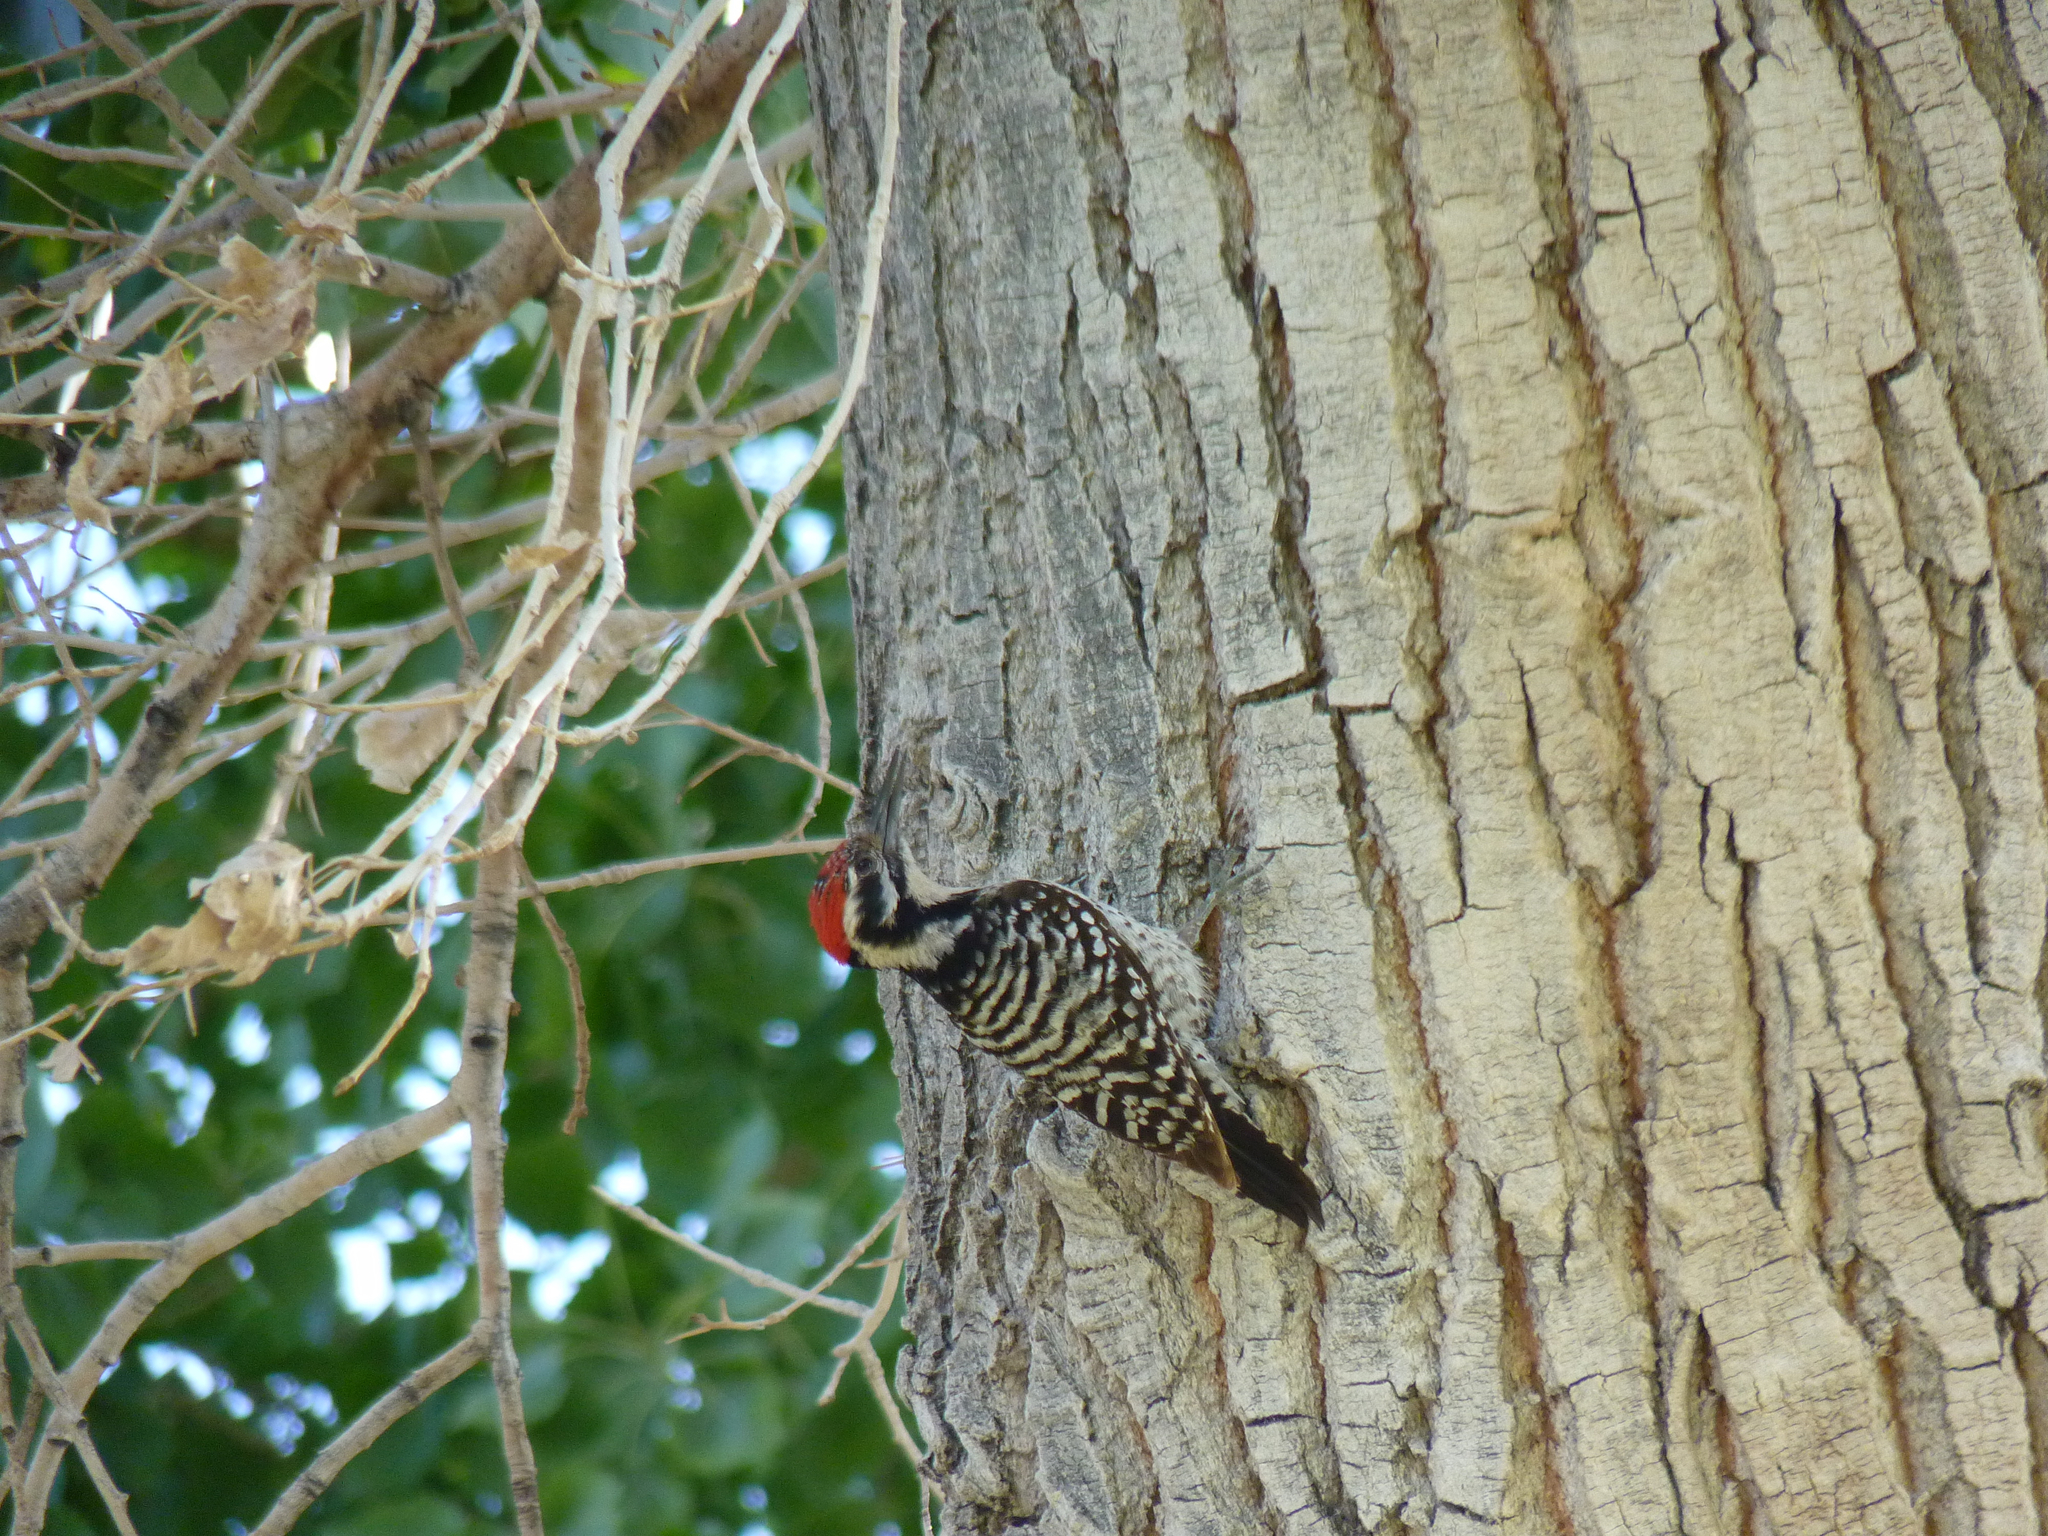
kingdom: Animalia
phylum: Chordata
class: Aves
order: Piciformes
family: Picidae
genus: Dryobates
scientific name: Dryobates scalaris
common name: Ladder-backed woodpecker
